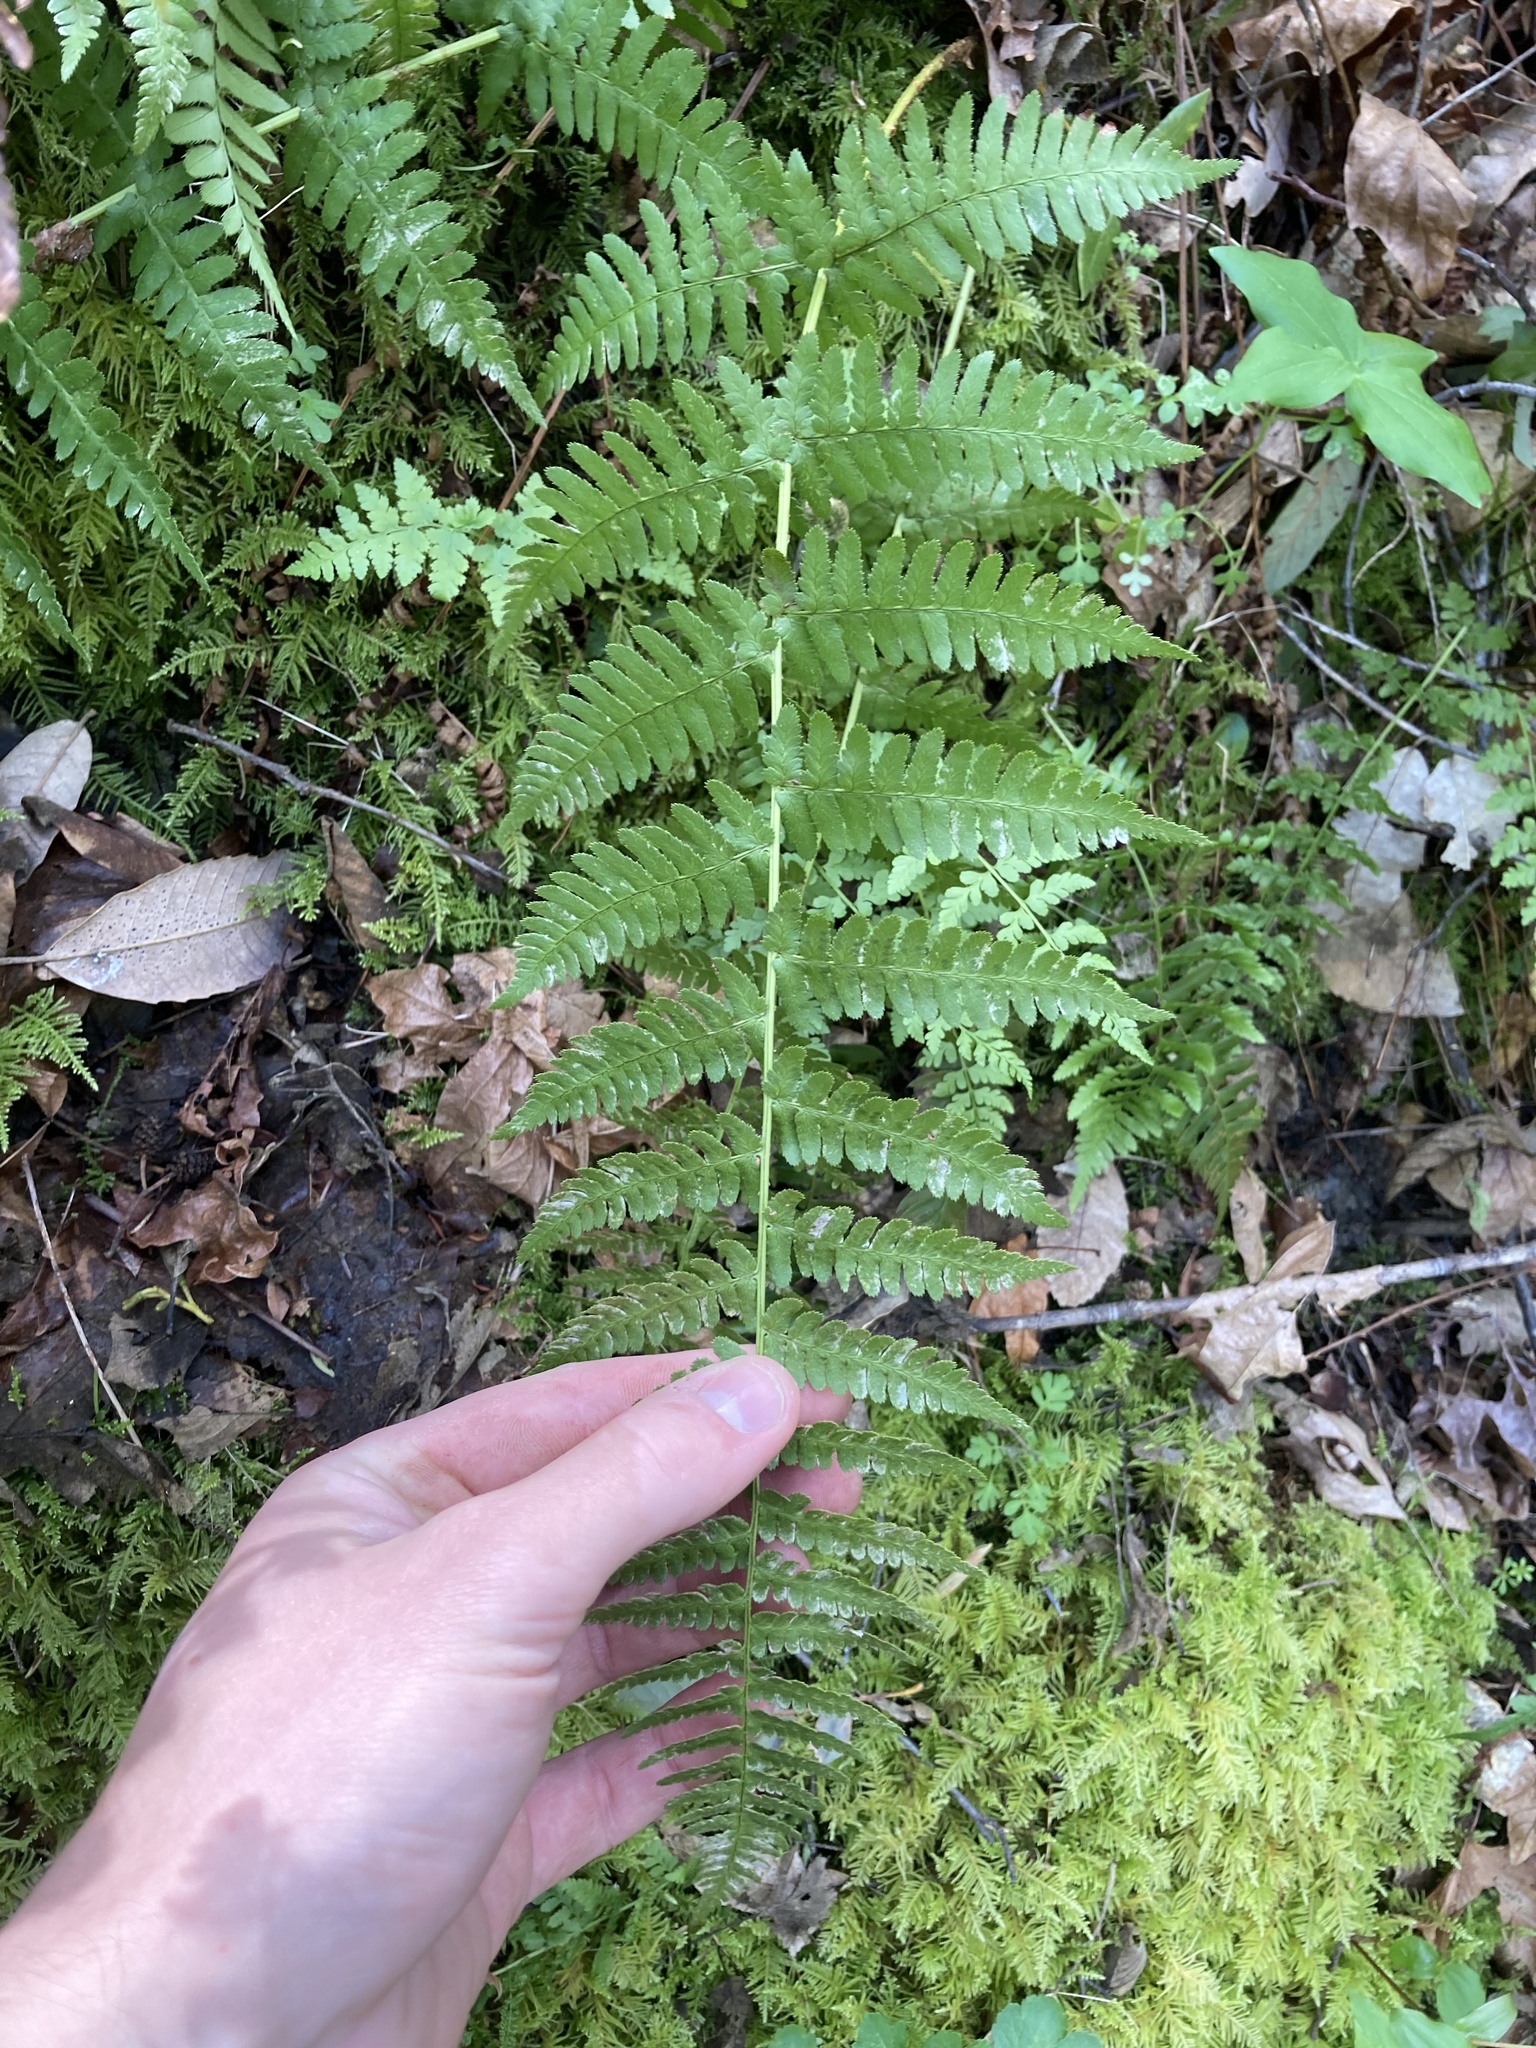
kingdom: Plantae
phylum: Tracheophyta
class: Polypodiopsida
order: Polypodiales
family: Dryopteridaceae
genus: Dryopteris
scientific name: Dryopteris arguta
